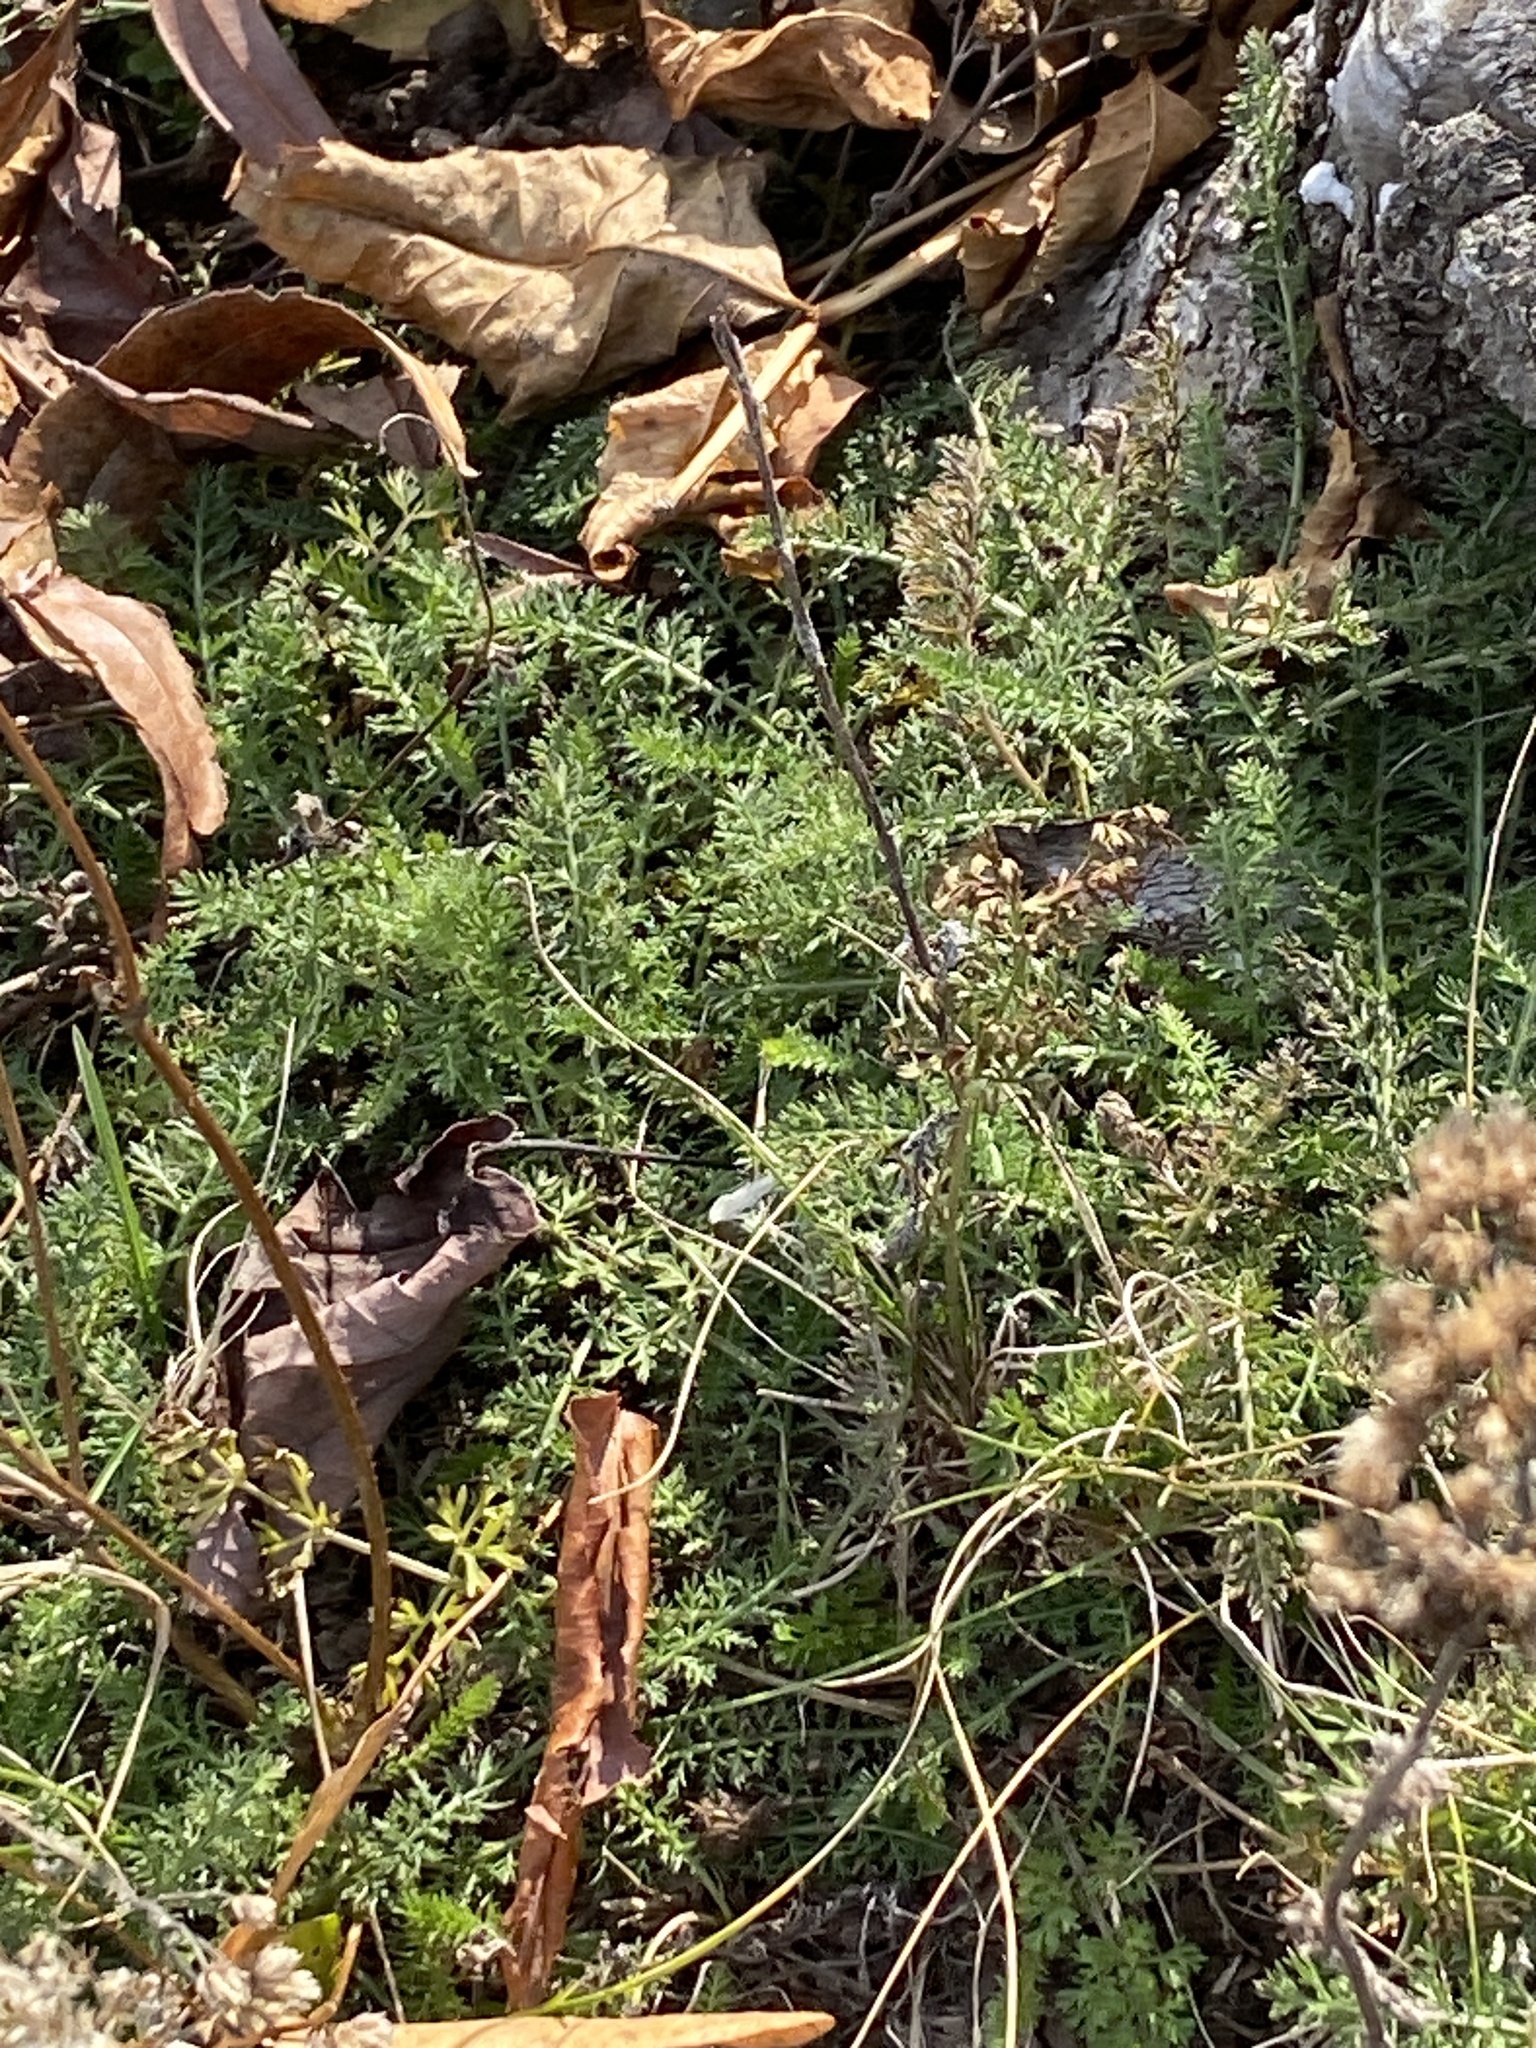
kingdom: Plantae
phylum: Tracheophyta
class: Magnoliopsida
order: Asterales
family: Asteraceae
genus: Achillea
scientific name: Achillea millefolium
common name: Yarrow
